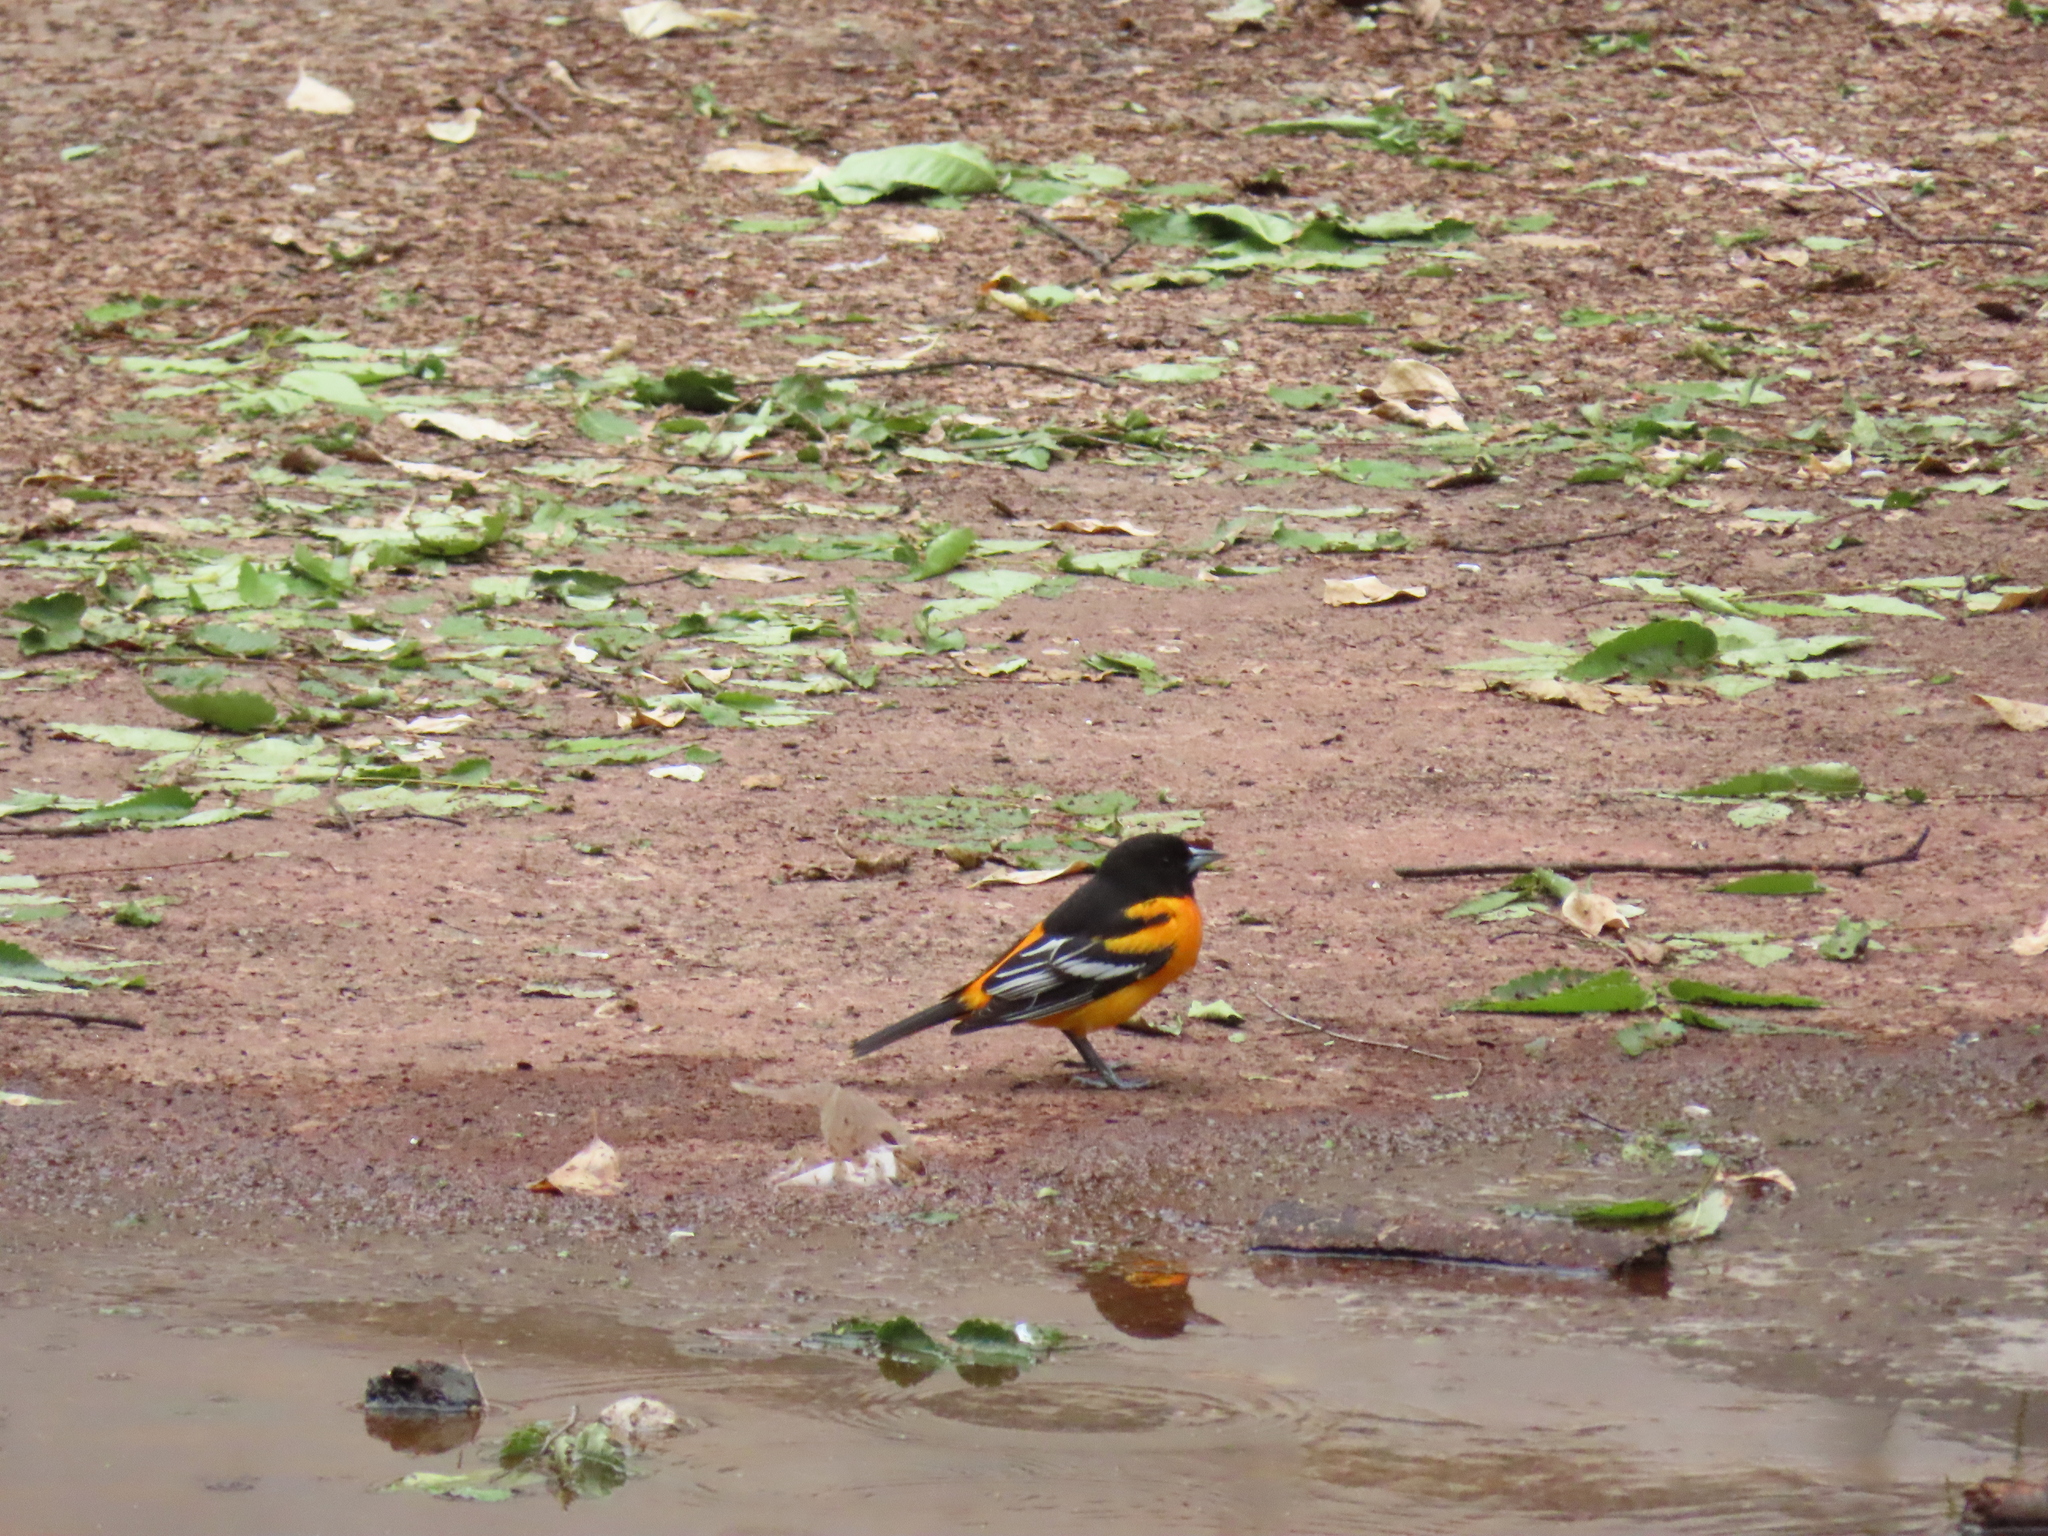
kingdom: Animalia
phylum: Chordata
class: Aves
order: Passeriformes
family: Icteridae
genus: Icterus
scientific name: Icterus galbula
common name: Baltimore oriole
